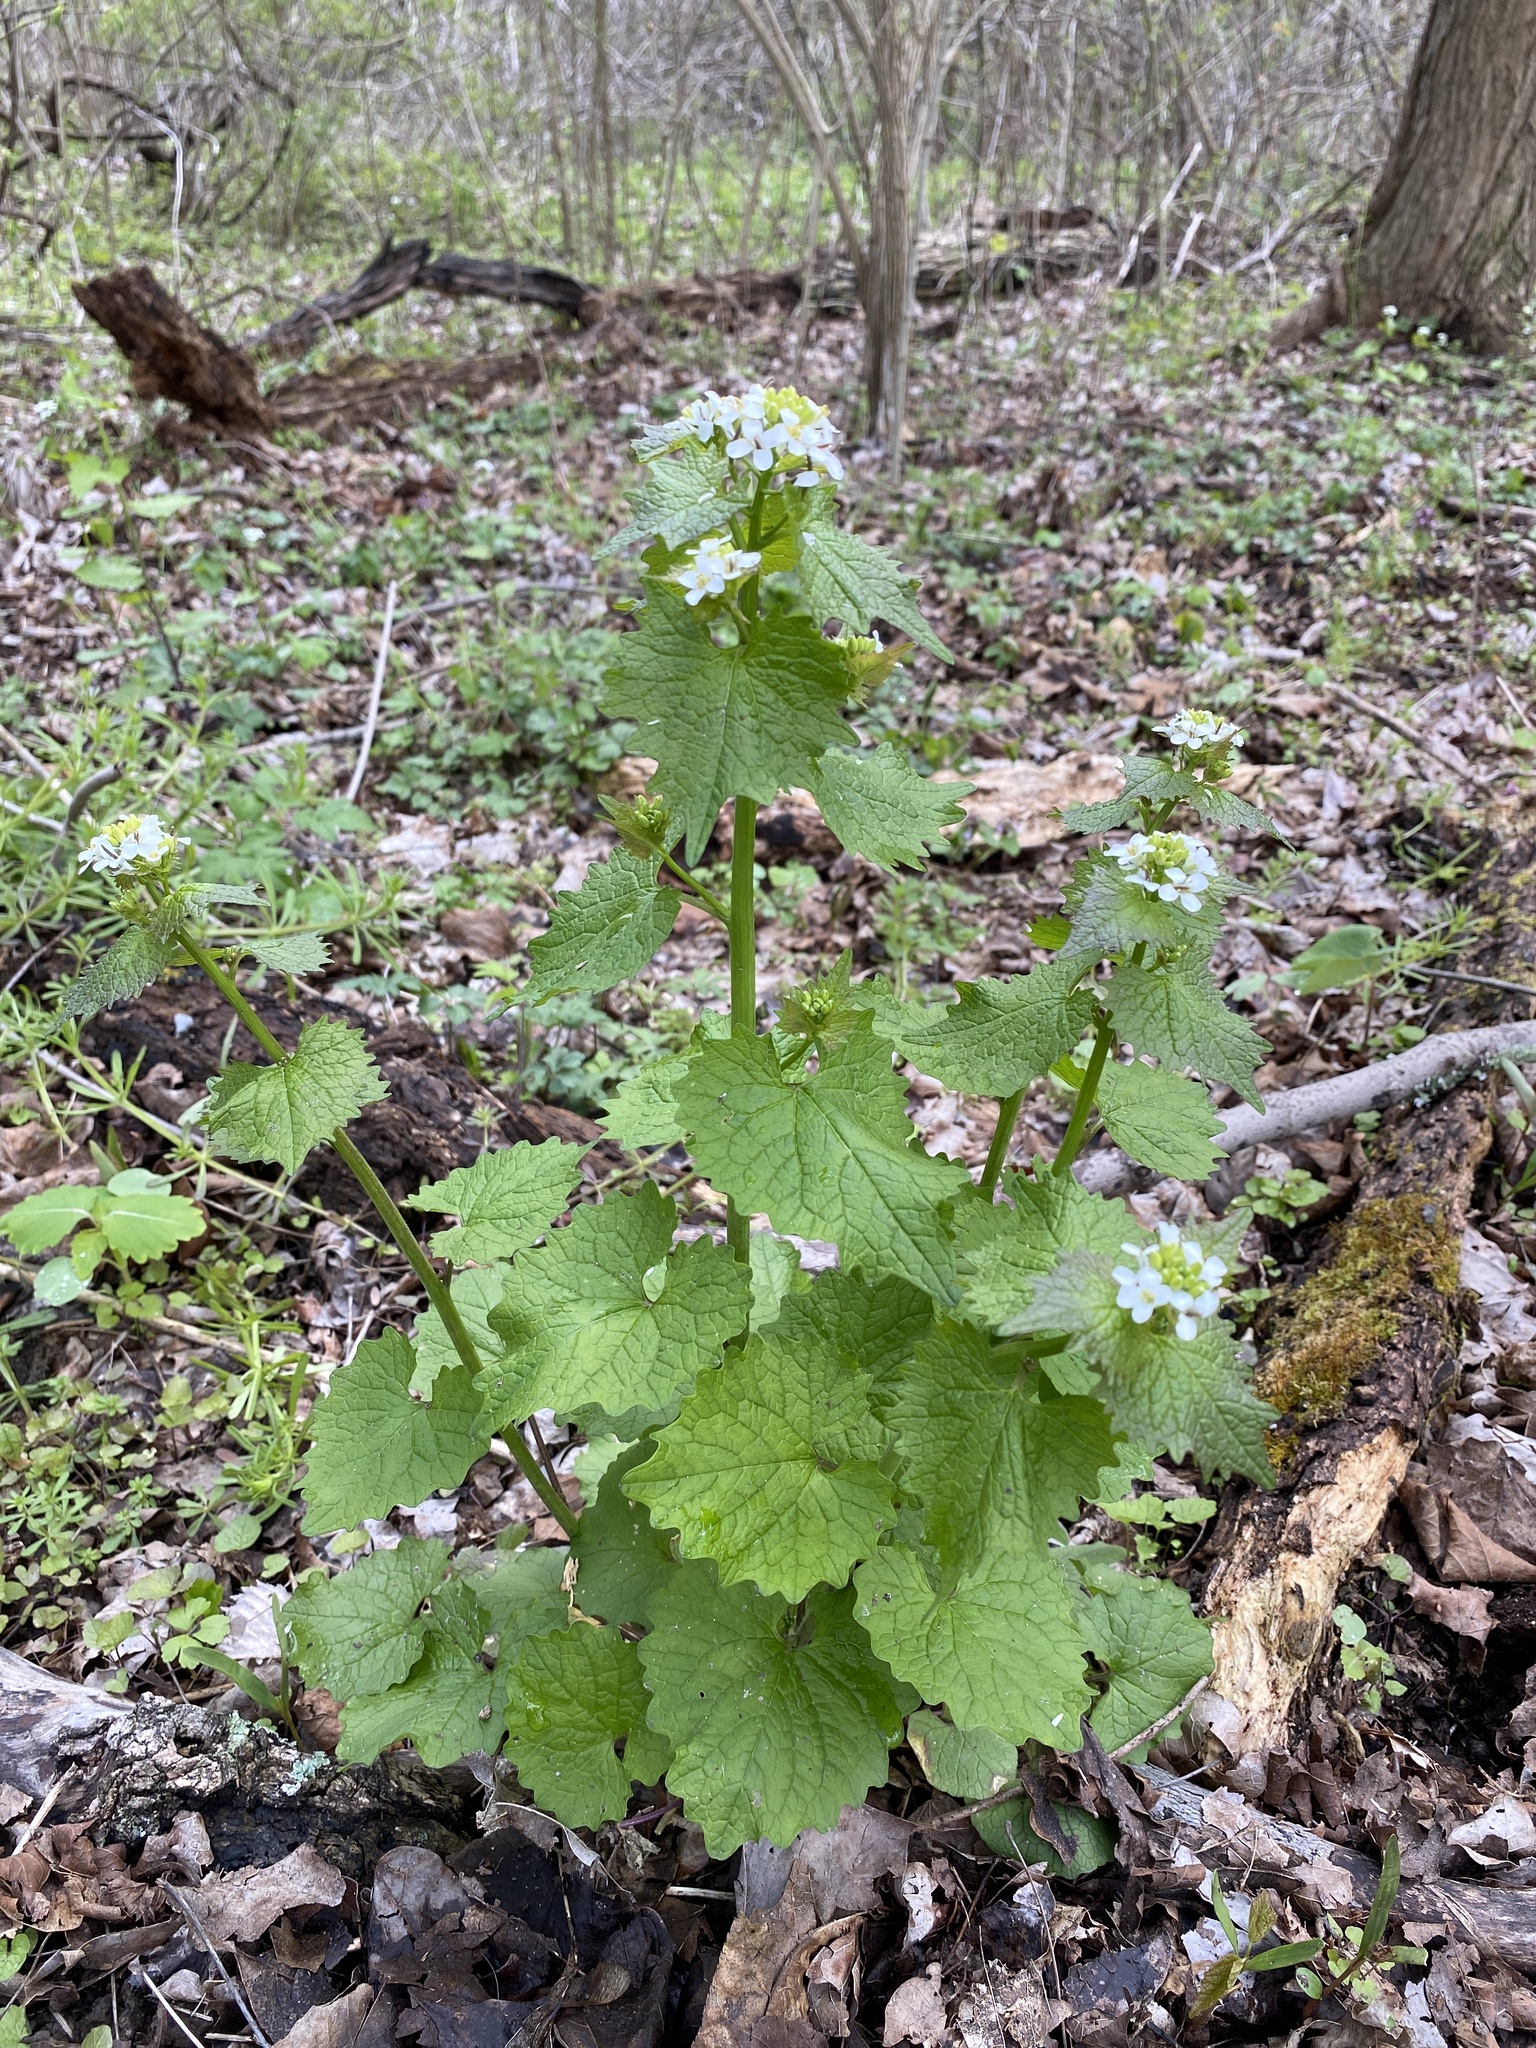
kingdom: Plantae
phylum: Tracheophyta
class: Magnoliopsida
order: Brassicales
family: Brassicaceae
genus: Alliaria
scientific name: Alliaria petiolata
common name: Garlic mustard
